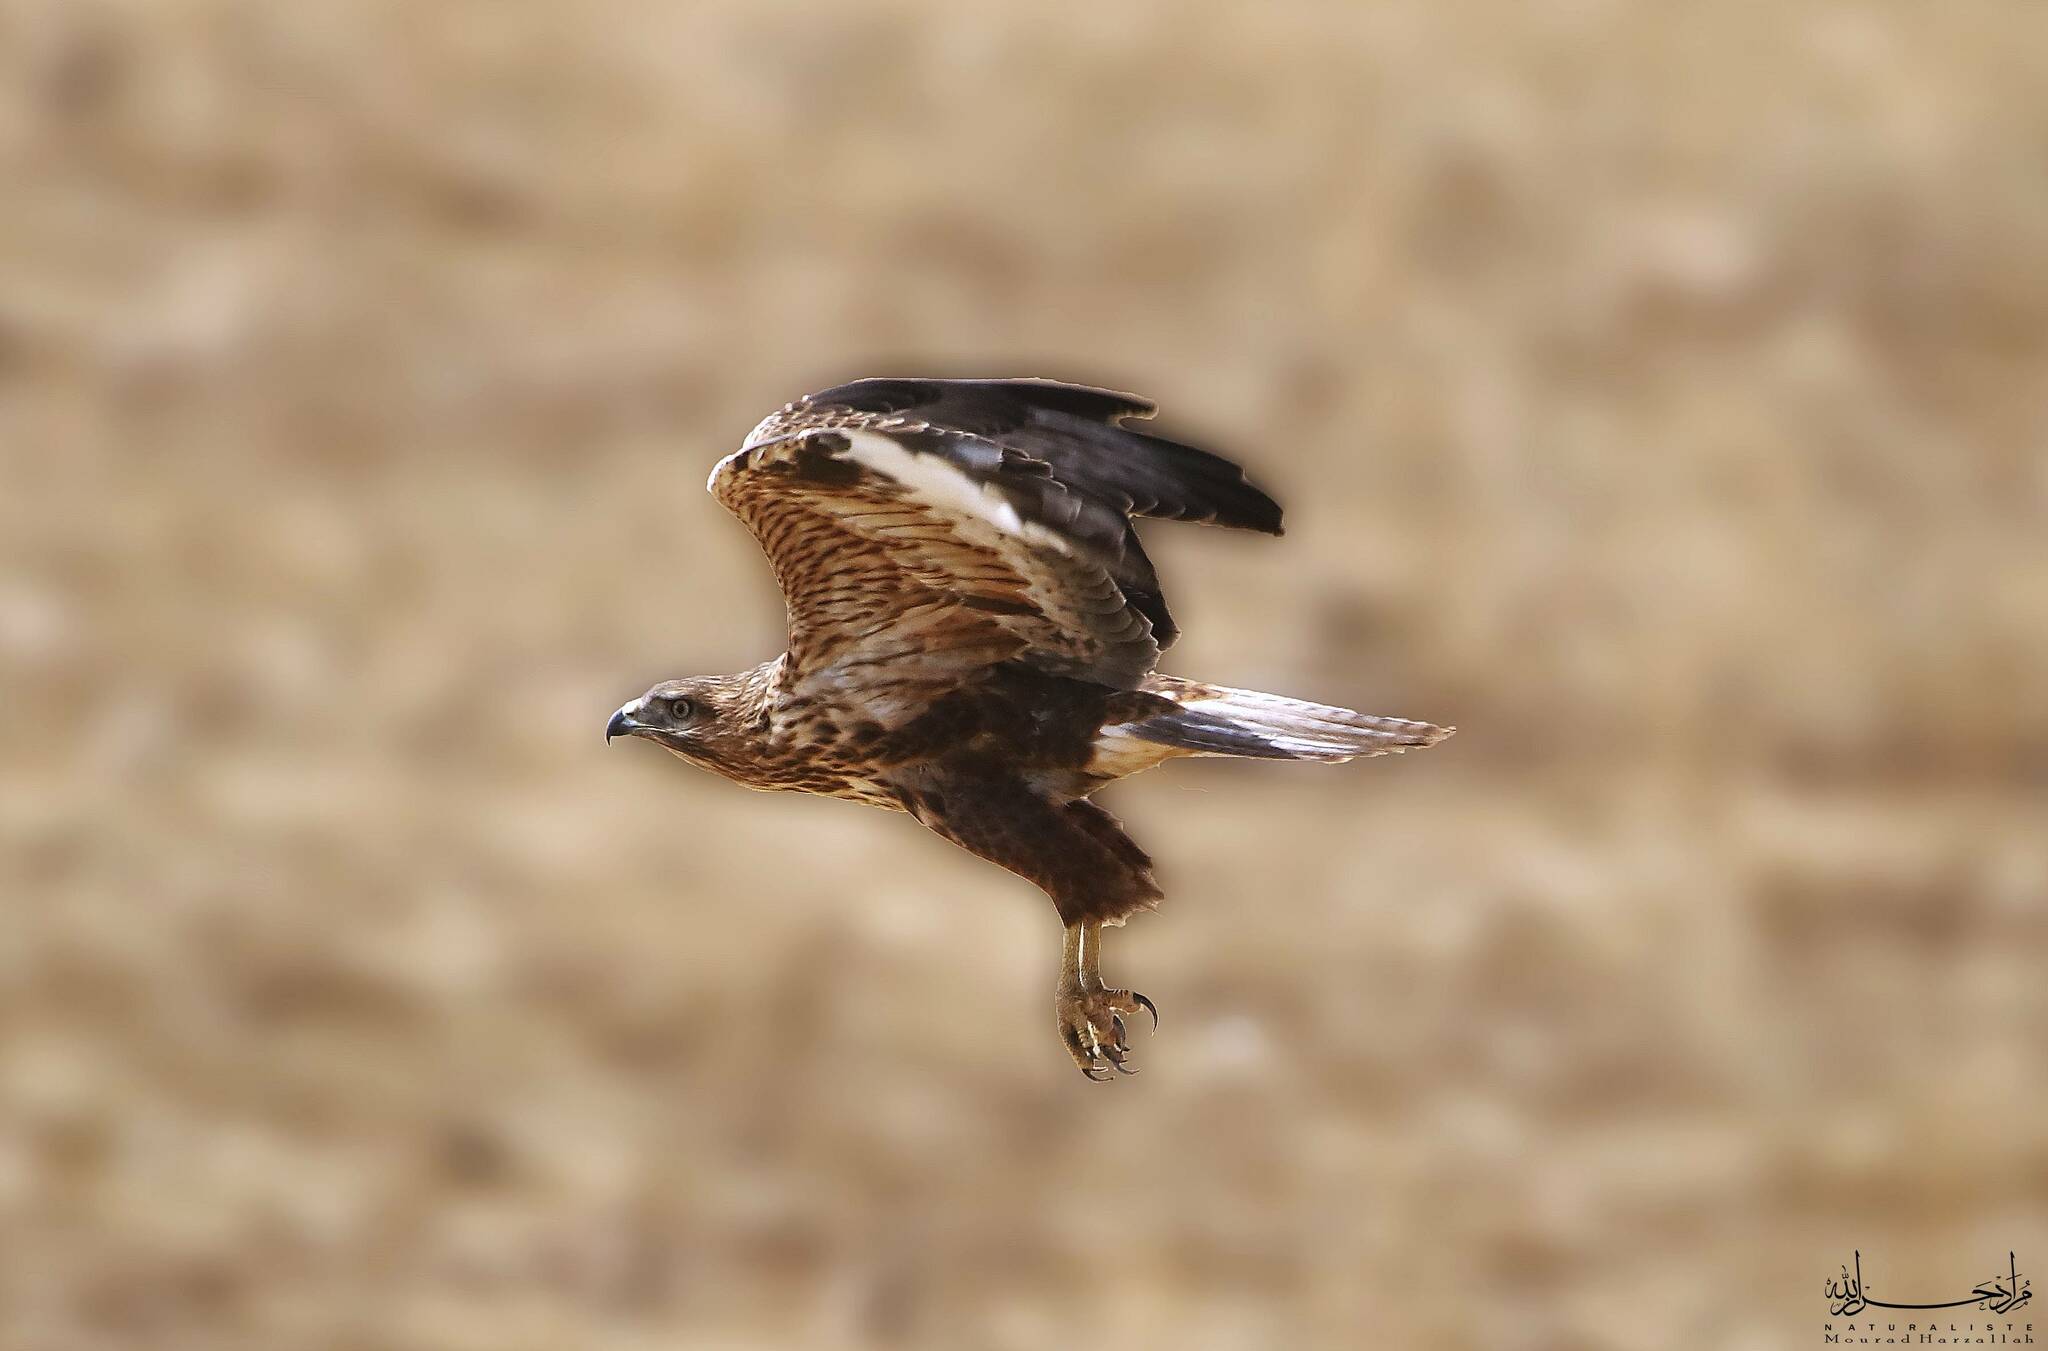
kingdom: Animalia
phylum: Chordata
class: Aves
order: Accipitriformes
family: Accipitridae
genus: Buteo
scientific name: Buteo rufinus
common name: Long-legged buzzard
